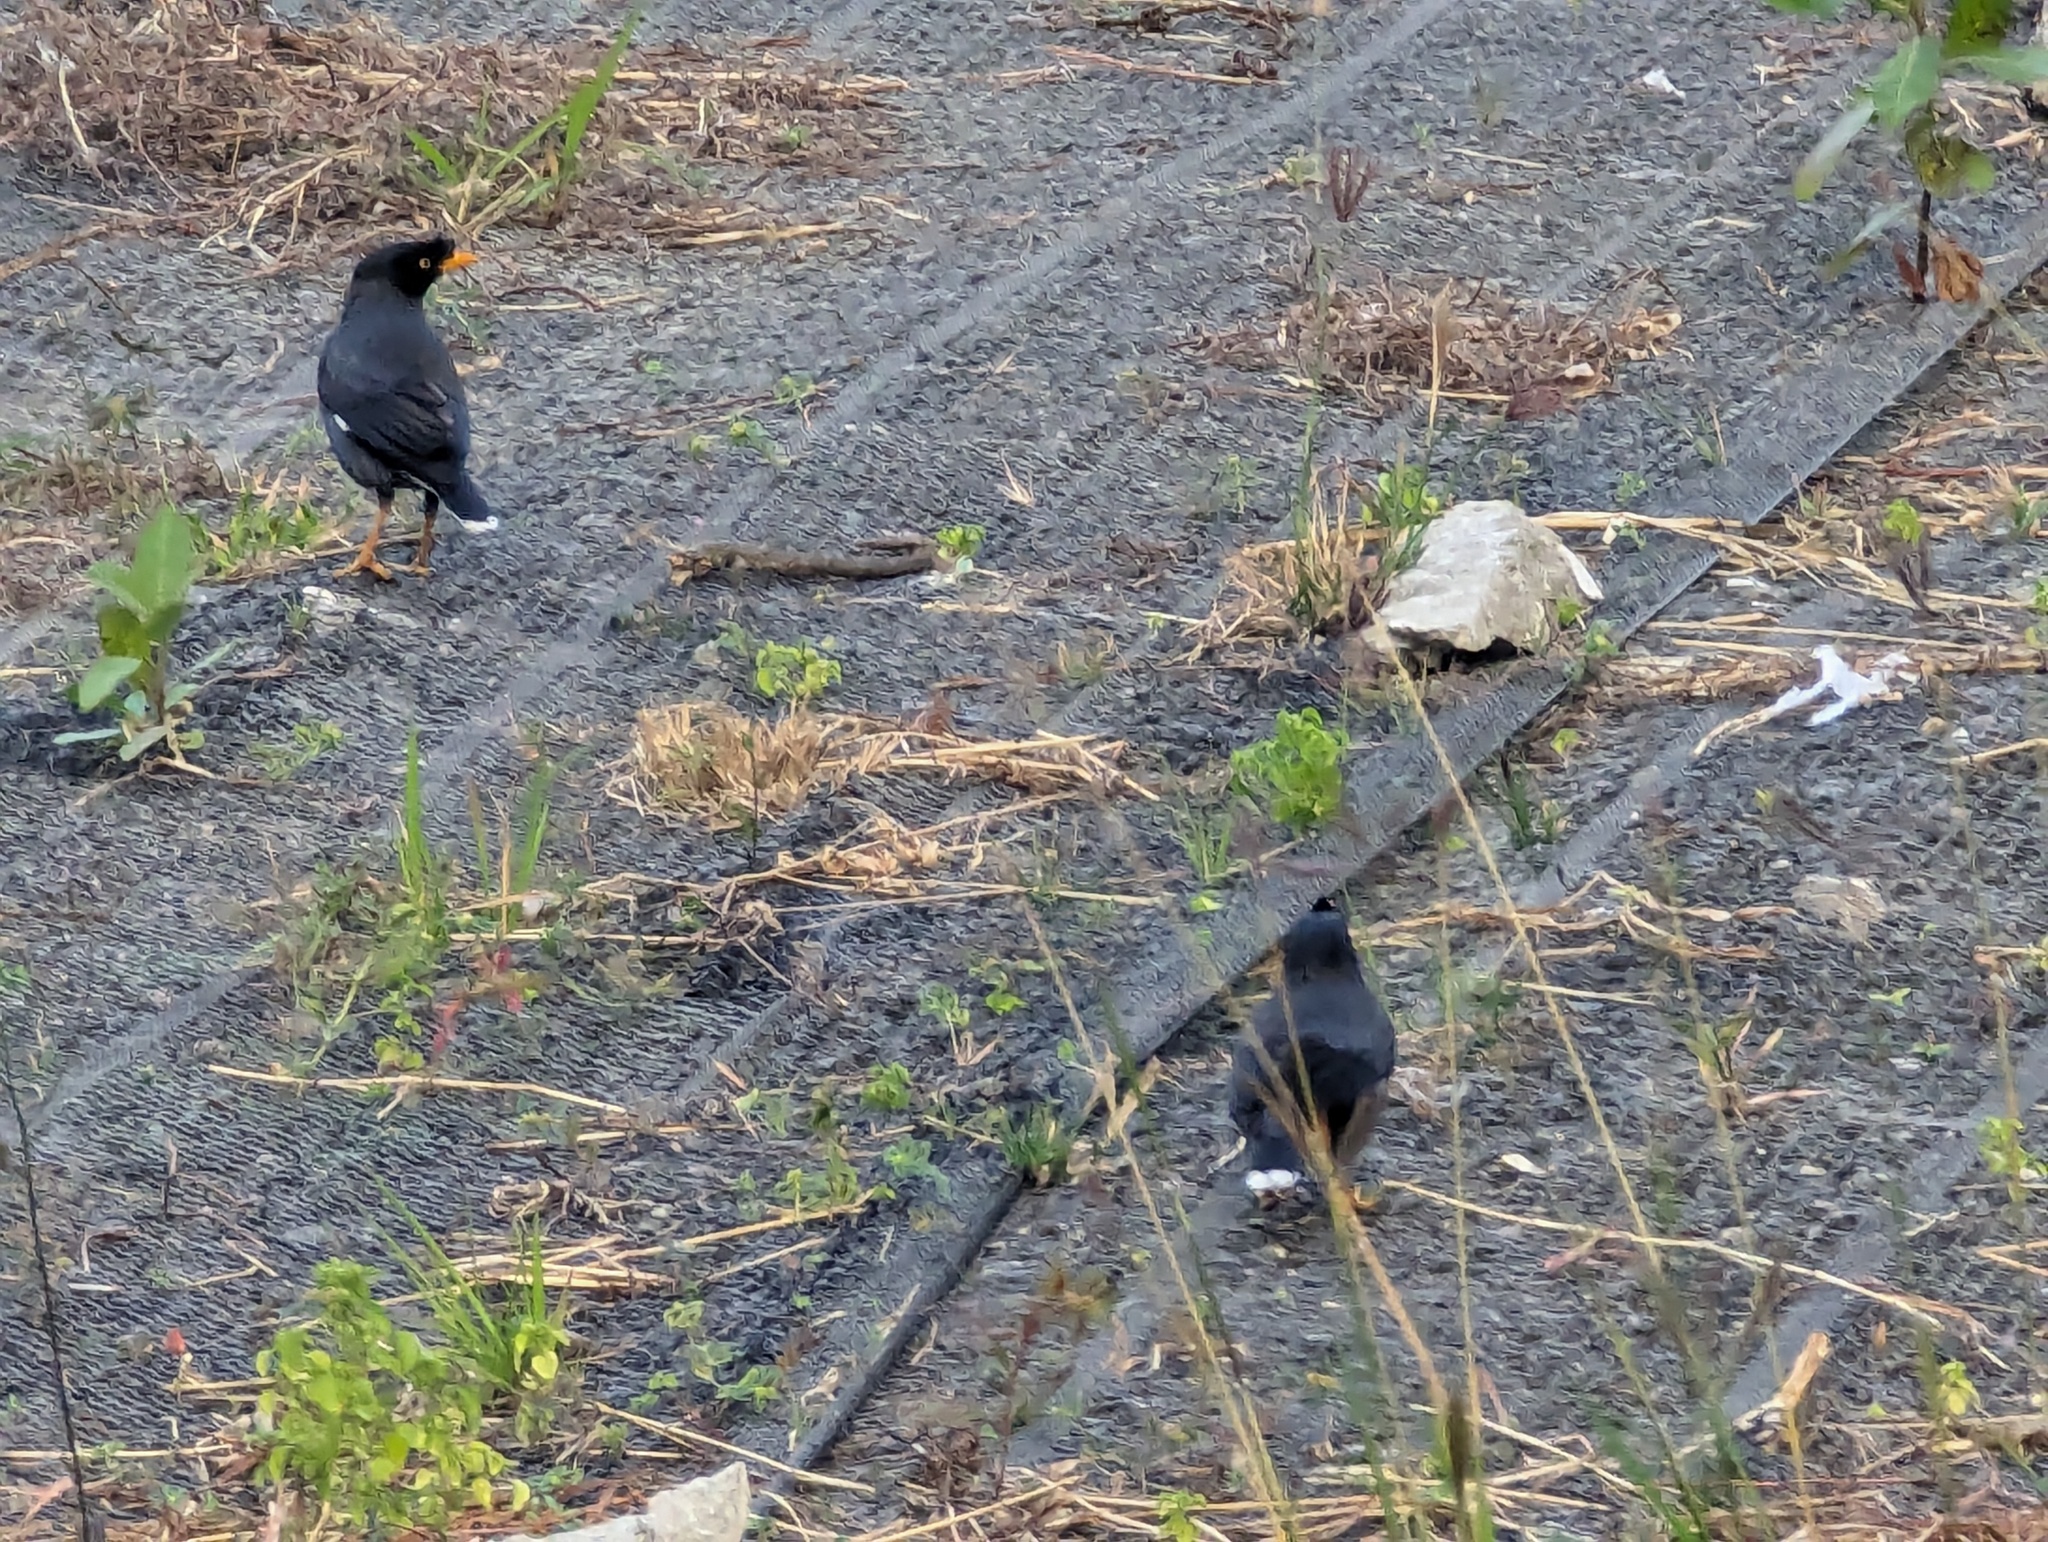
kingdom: Animalia
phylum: Chordata
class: Aves
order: Passeriformes
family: Sturnidae
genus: Acridotheres
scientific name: Acridotheres javanicus
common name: Javan myna
